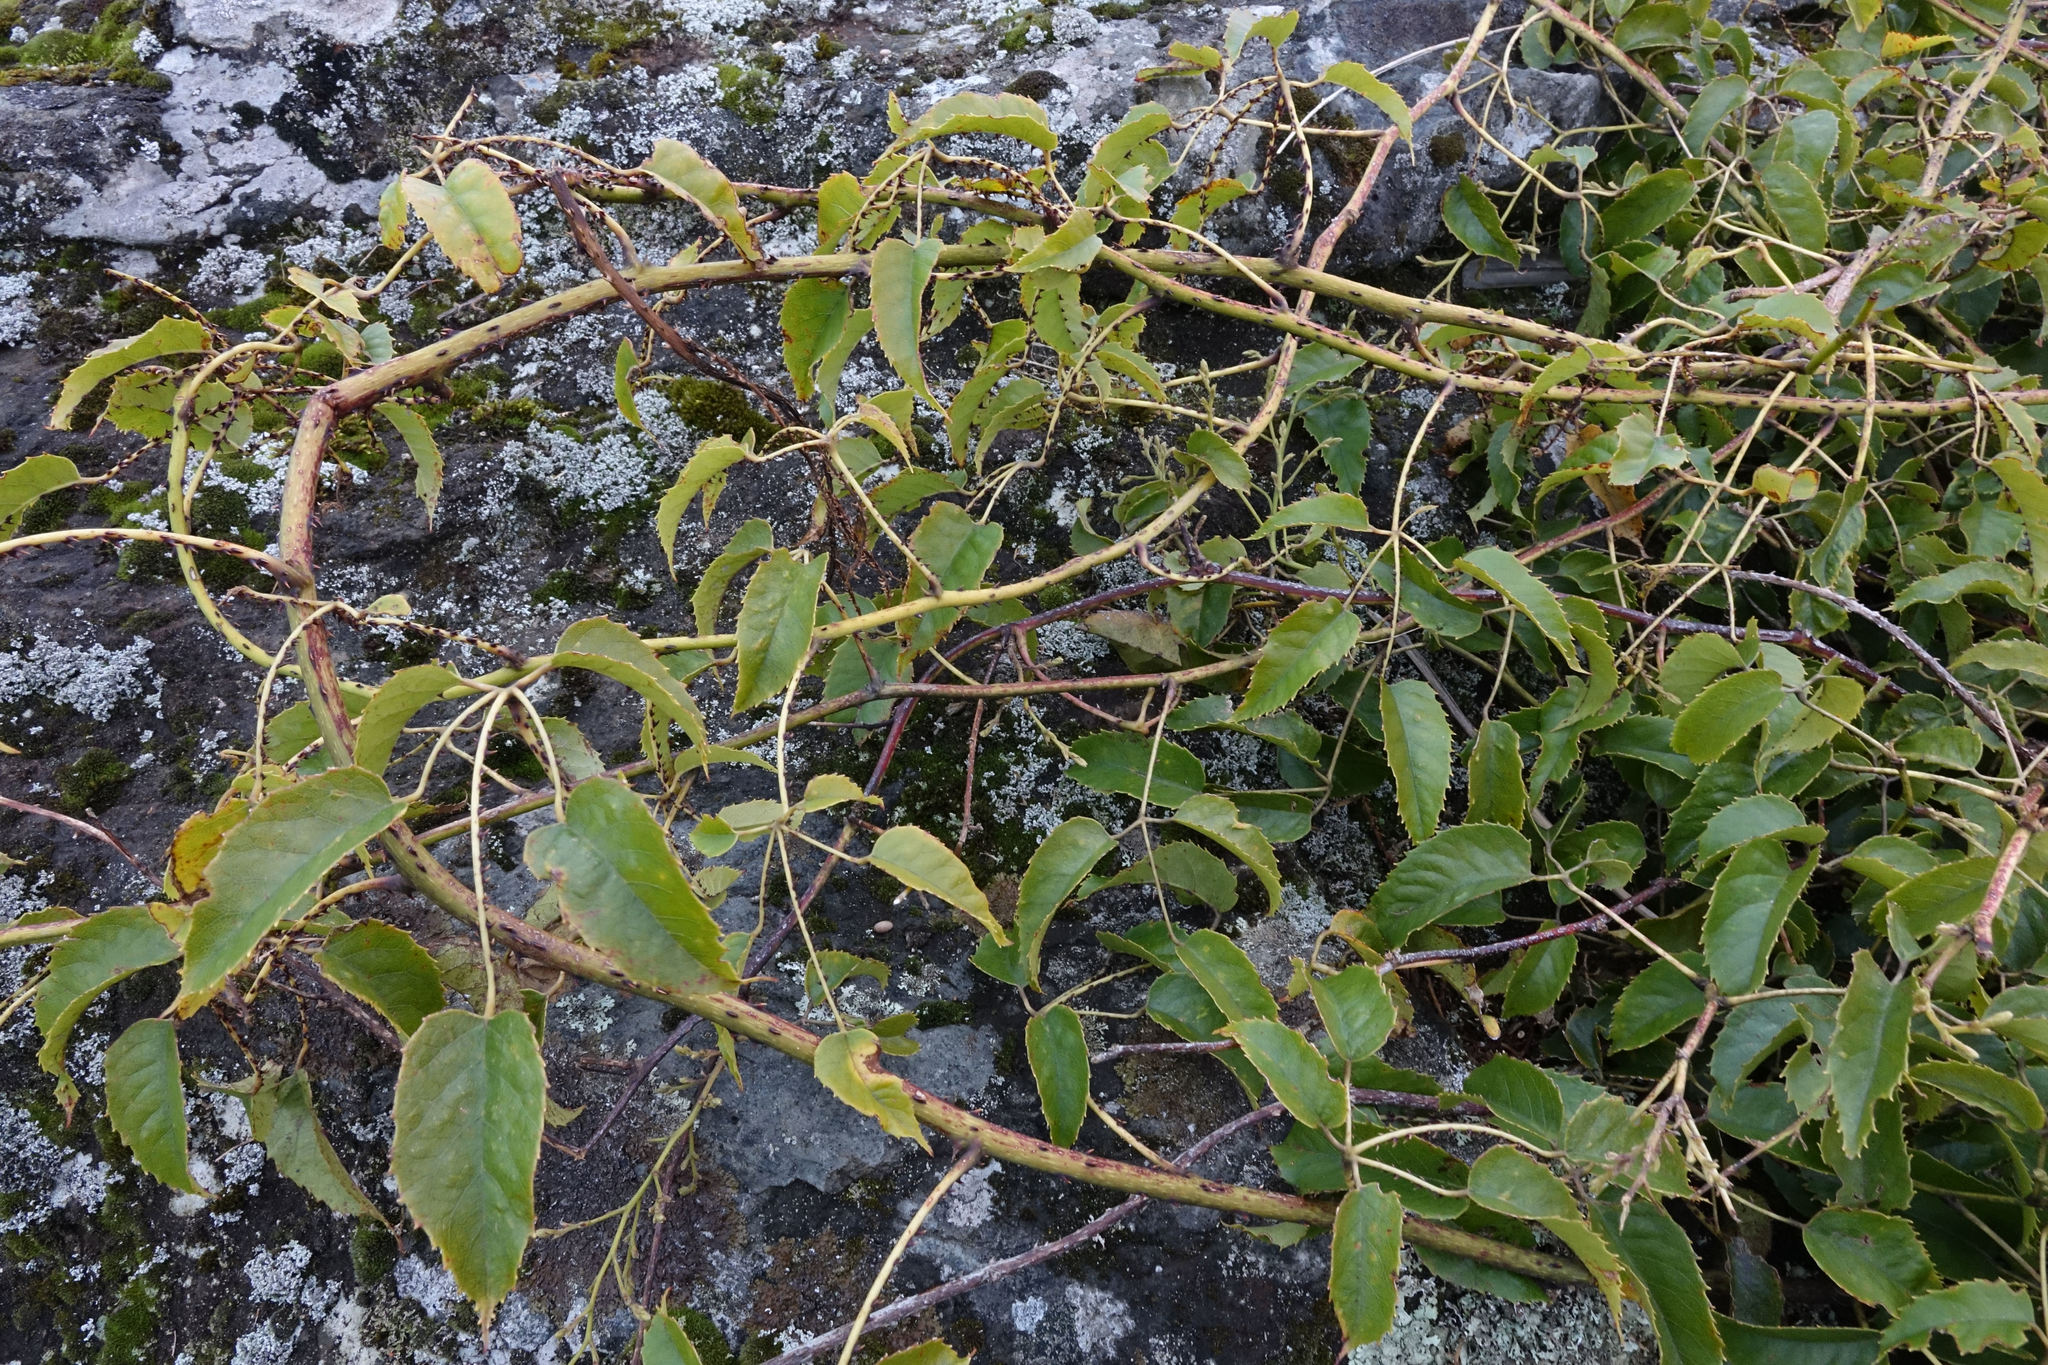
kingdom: Plantae
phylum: Tracheophyta
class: Magnoliopsida
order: Rosales
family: Rosaceae
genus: Rubus
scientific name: Rubus cissoides
